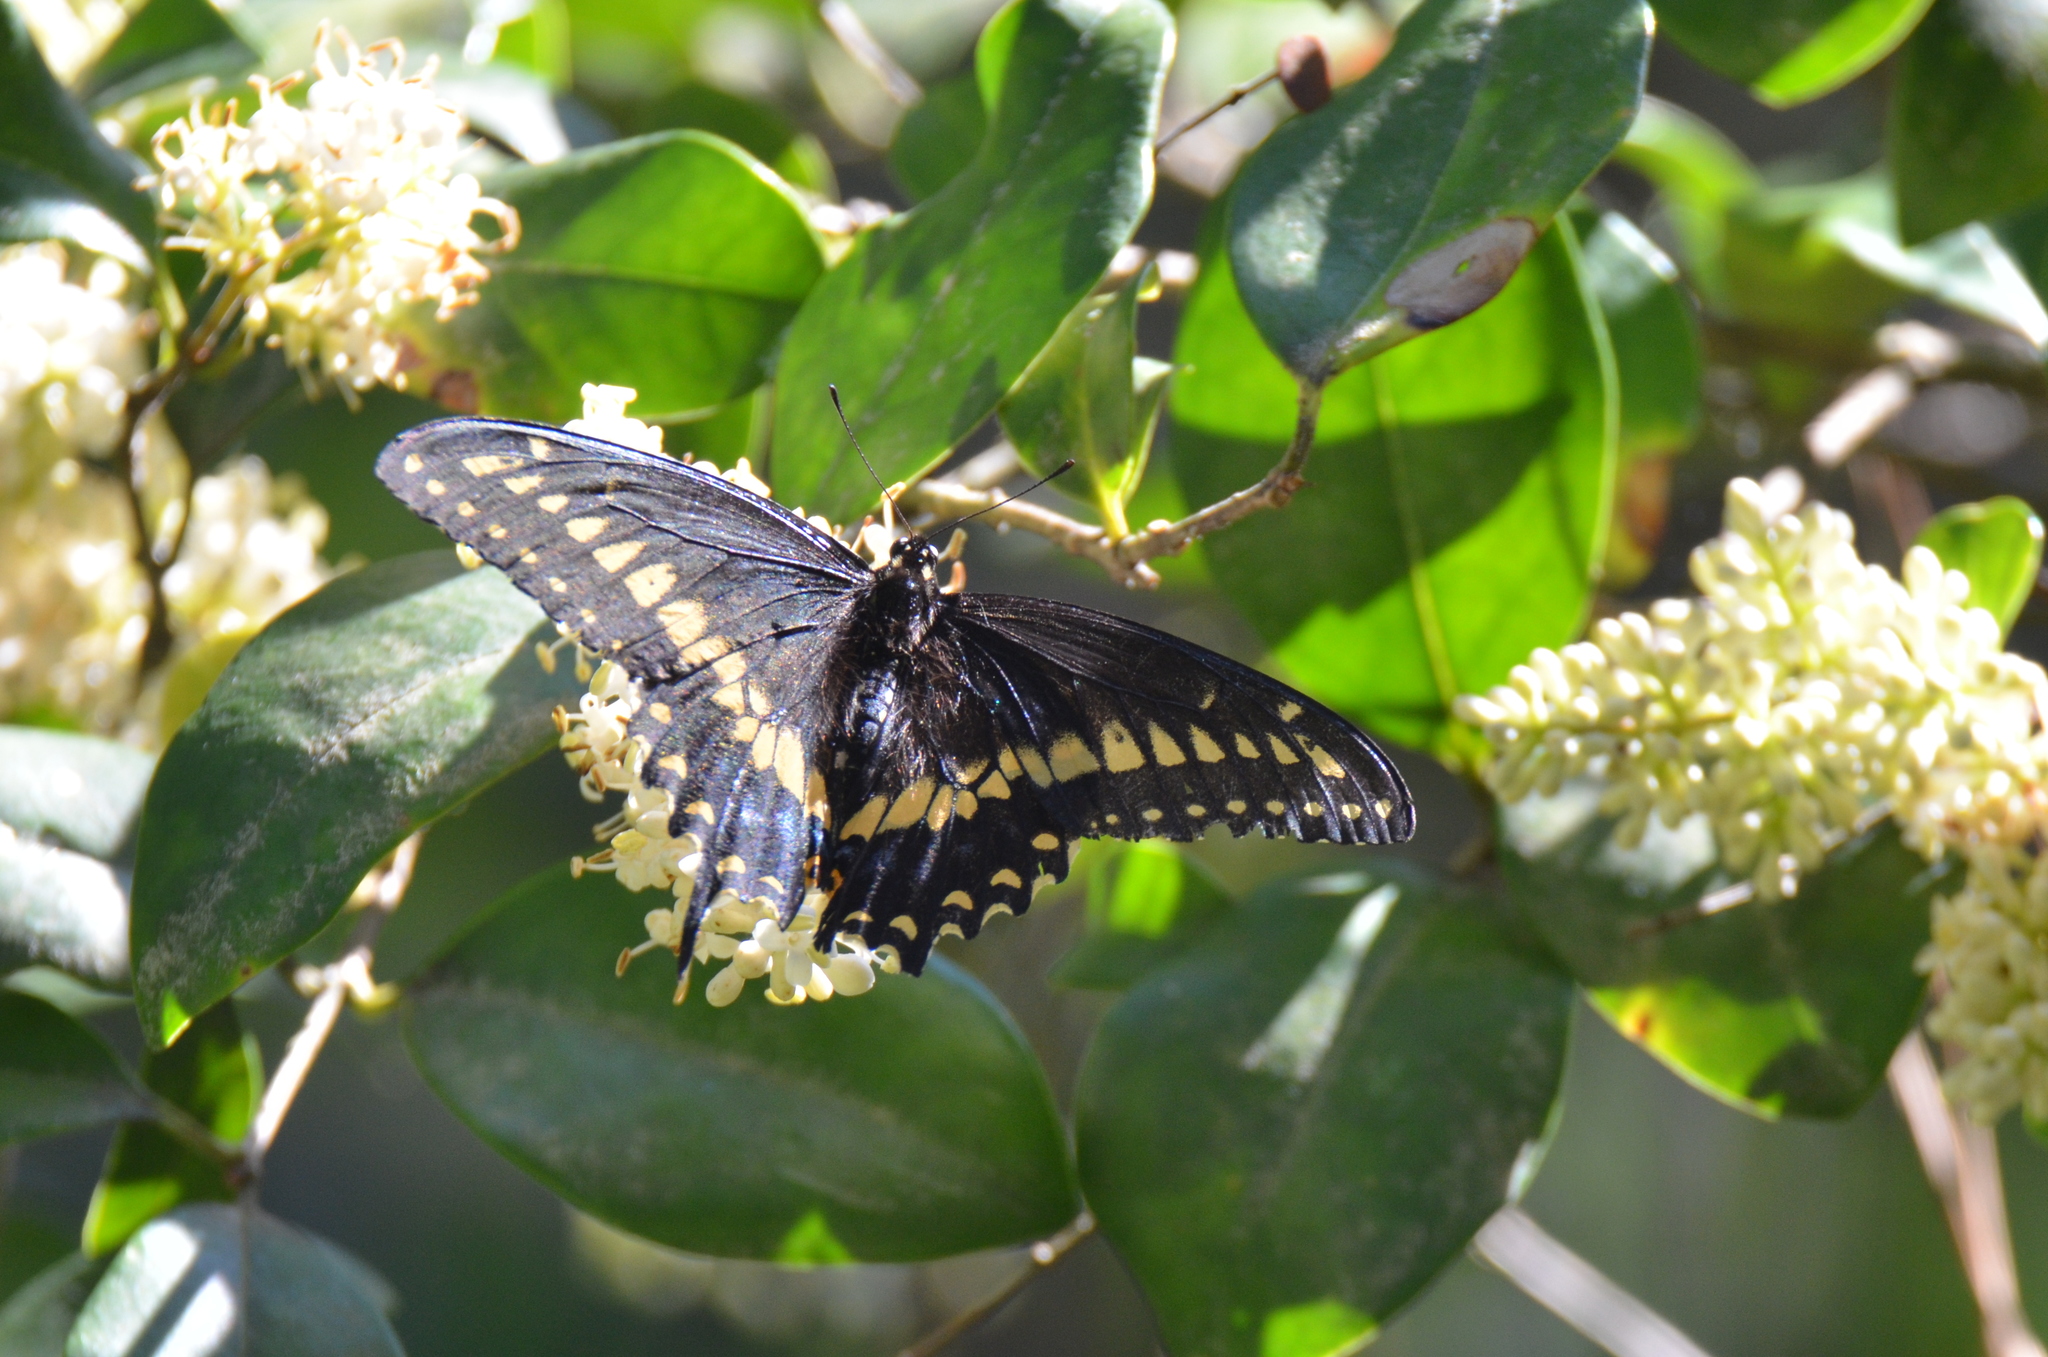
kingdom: Animalia
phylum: Arthropoda
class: Insecta
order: Lepidoptera
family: Papilionidae
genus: Papilio
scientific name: Papilio polyxenes
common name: Black swallowtail
